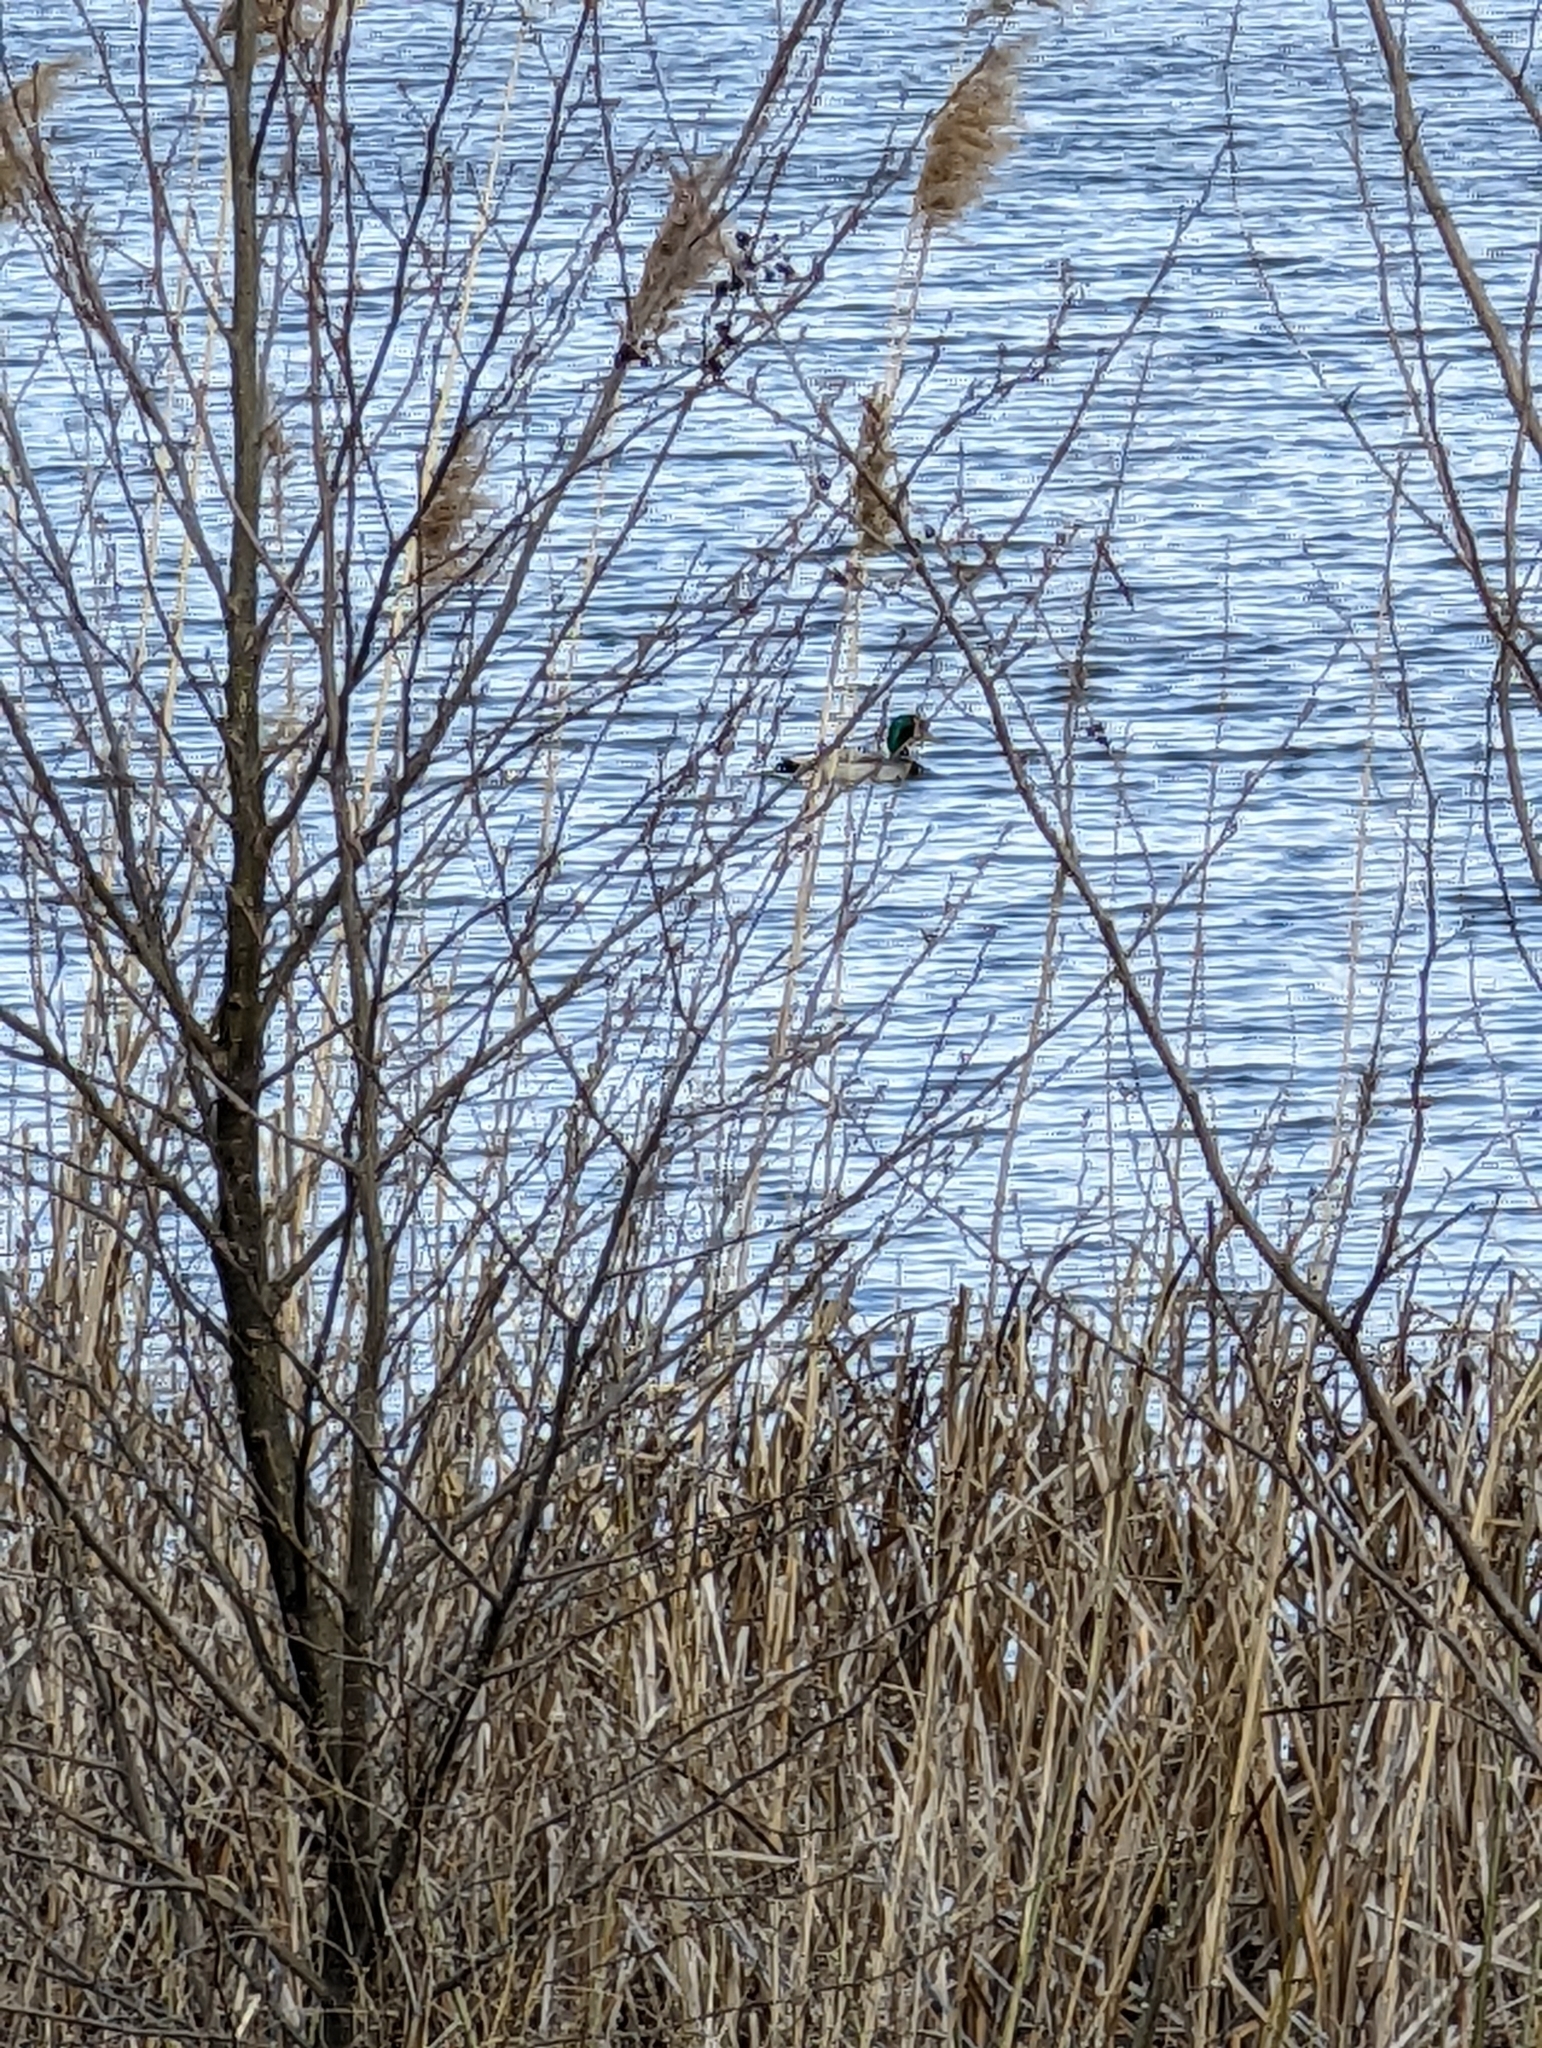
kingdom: Animalia
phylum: Chordata
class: Aves
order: Anseriformes
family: Anatidae
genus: Anas
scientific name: Anas platyrhynchos
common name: Mallard
